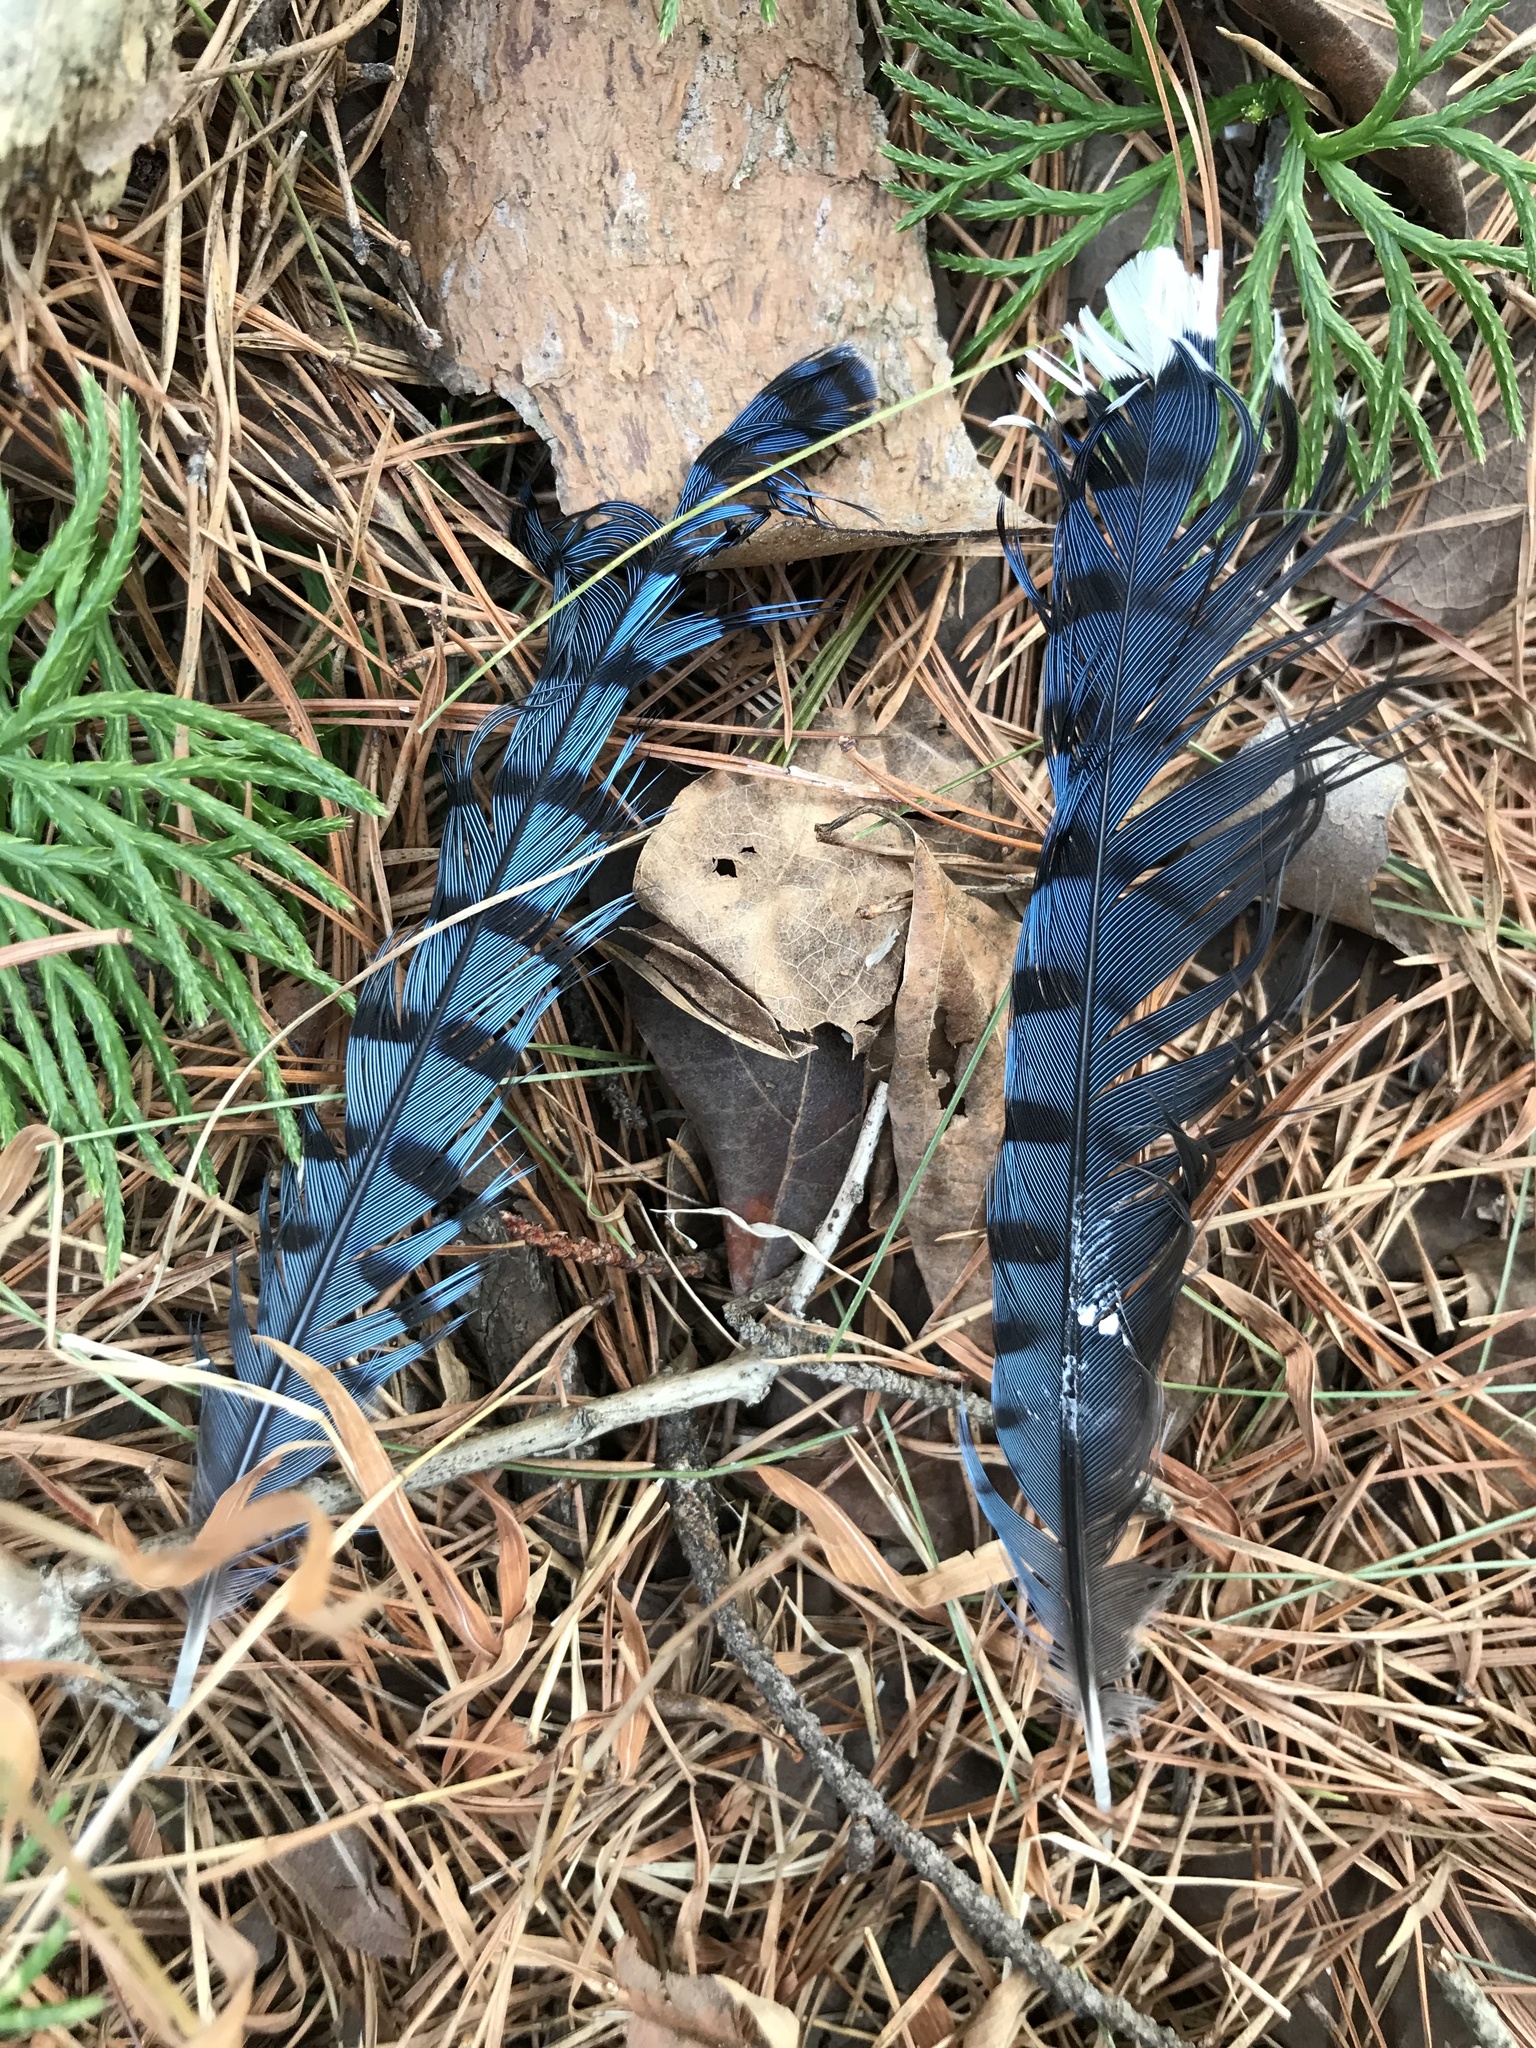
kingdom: Animalia
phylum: Chordata
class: Aves
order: Passeriformes
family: Corvidae
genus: Cyanocitta
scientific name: Cyanocitta cristata
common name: Blue jay
